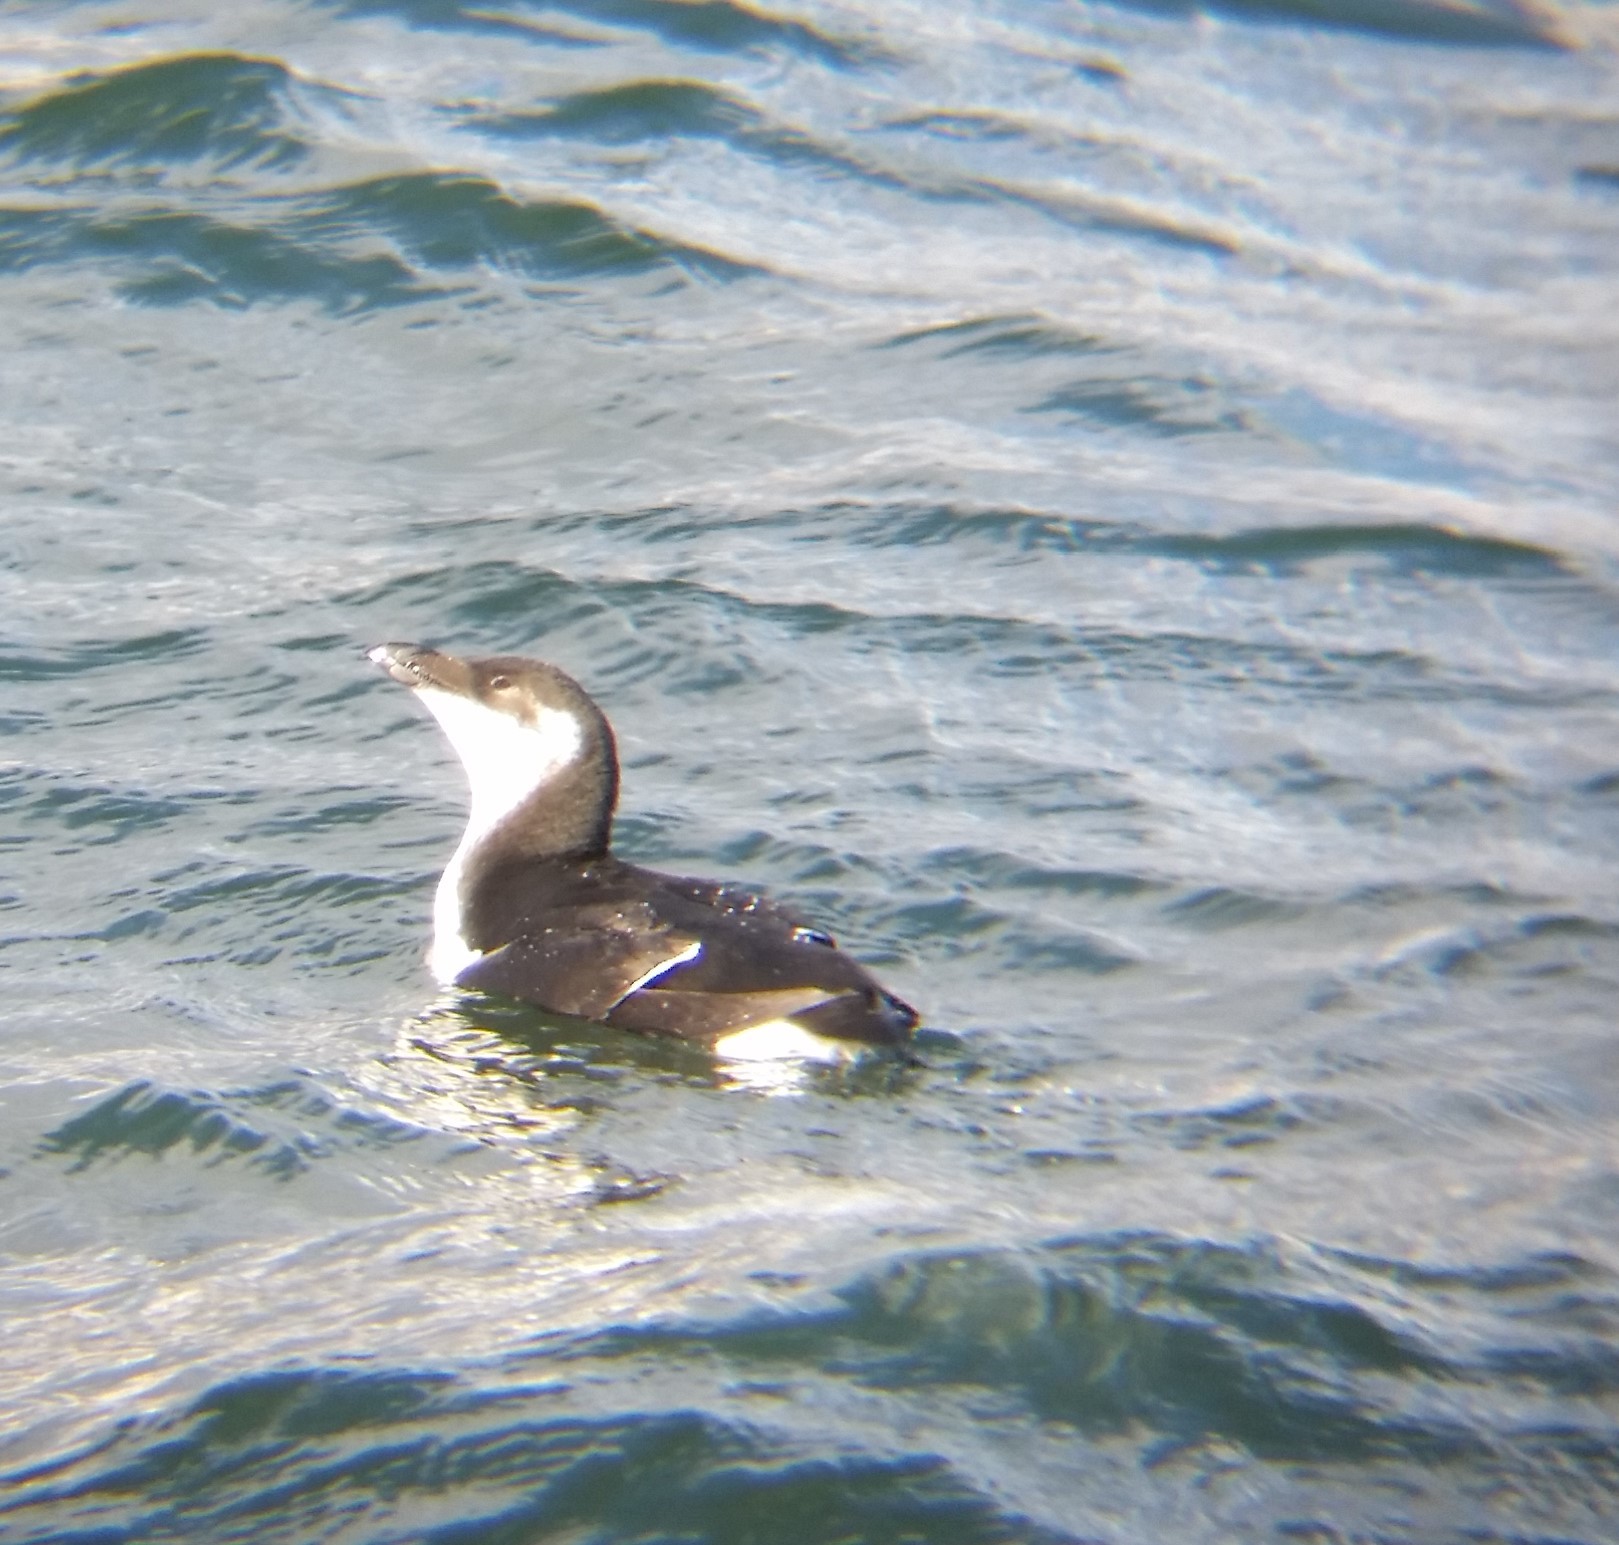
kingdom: Animalia
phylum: Chordata
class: Aves
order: Charadriiformes
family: Alcidae
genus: Alca
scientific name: Alca torda
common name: Razorbill
